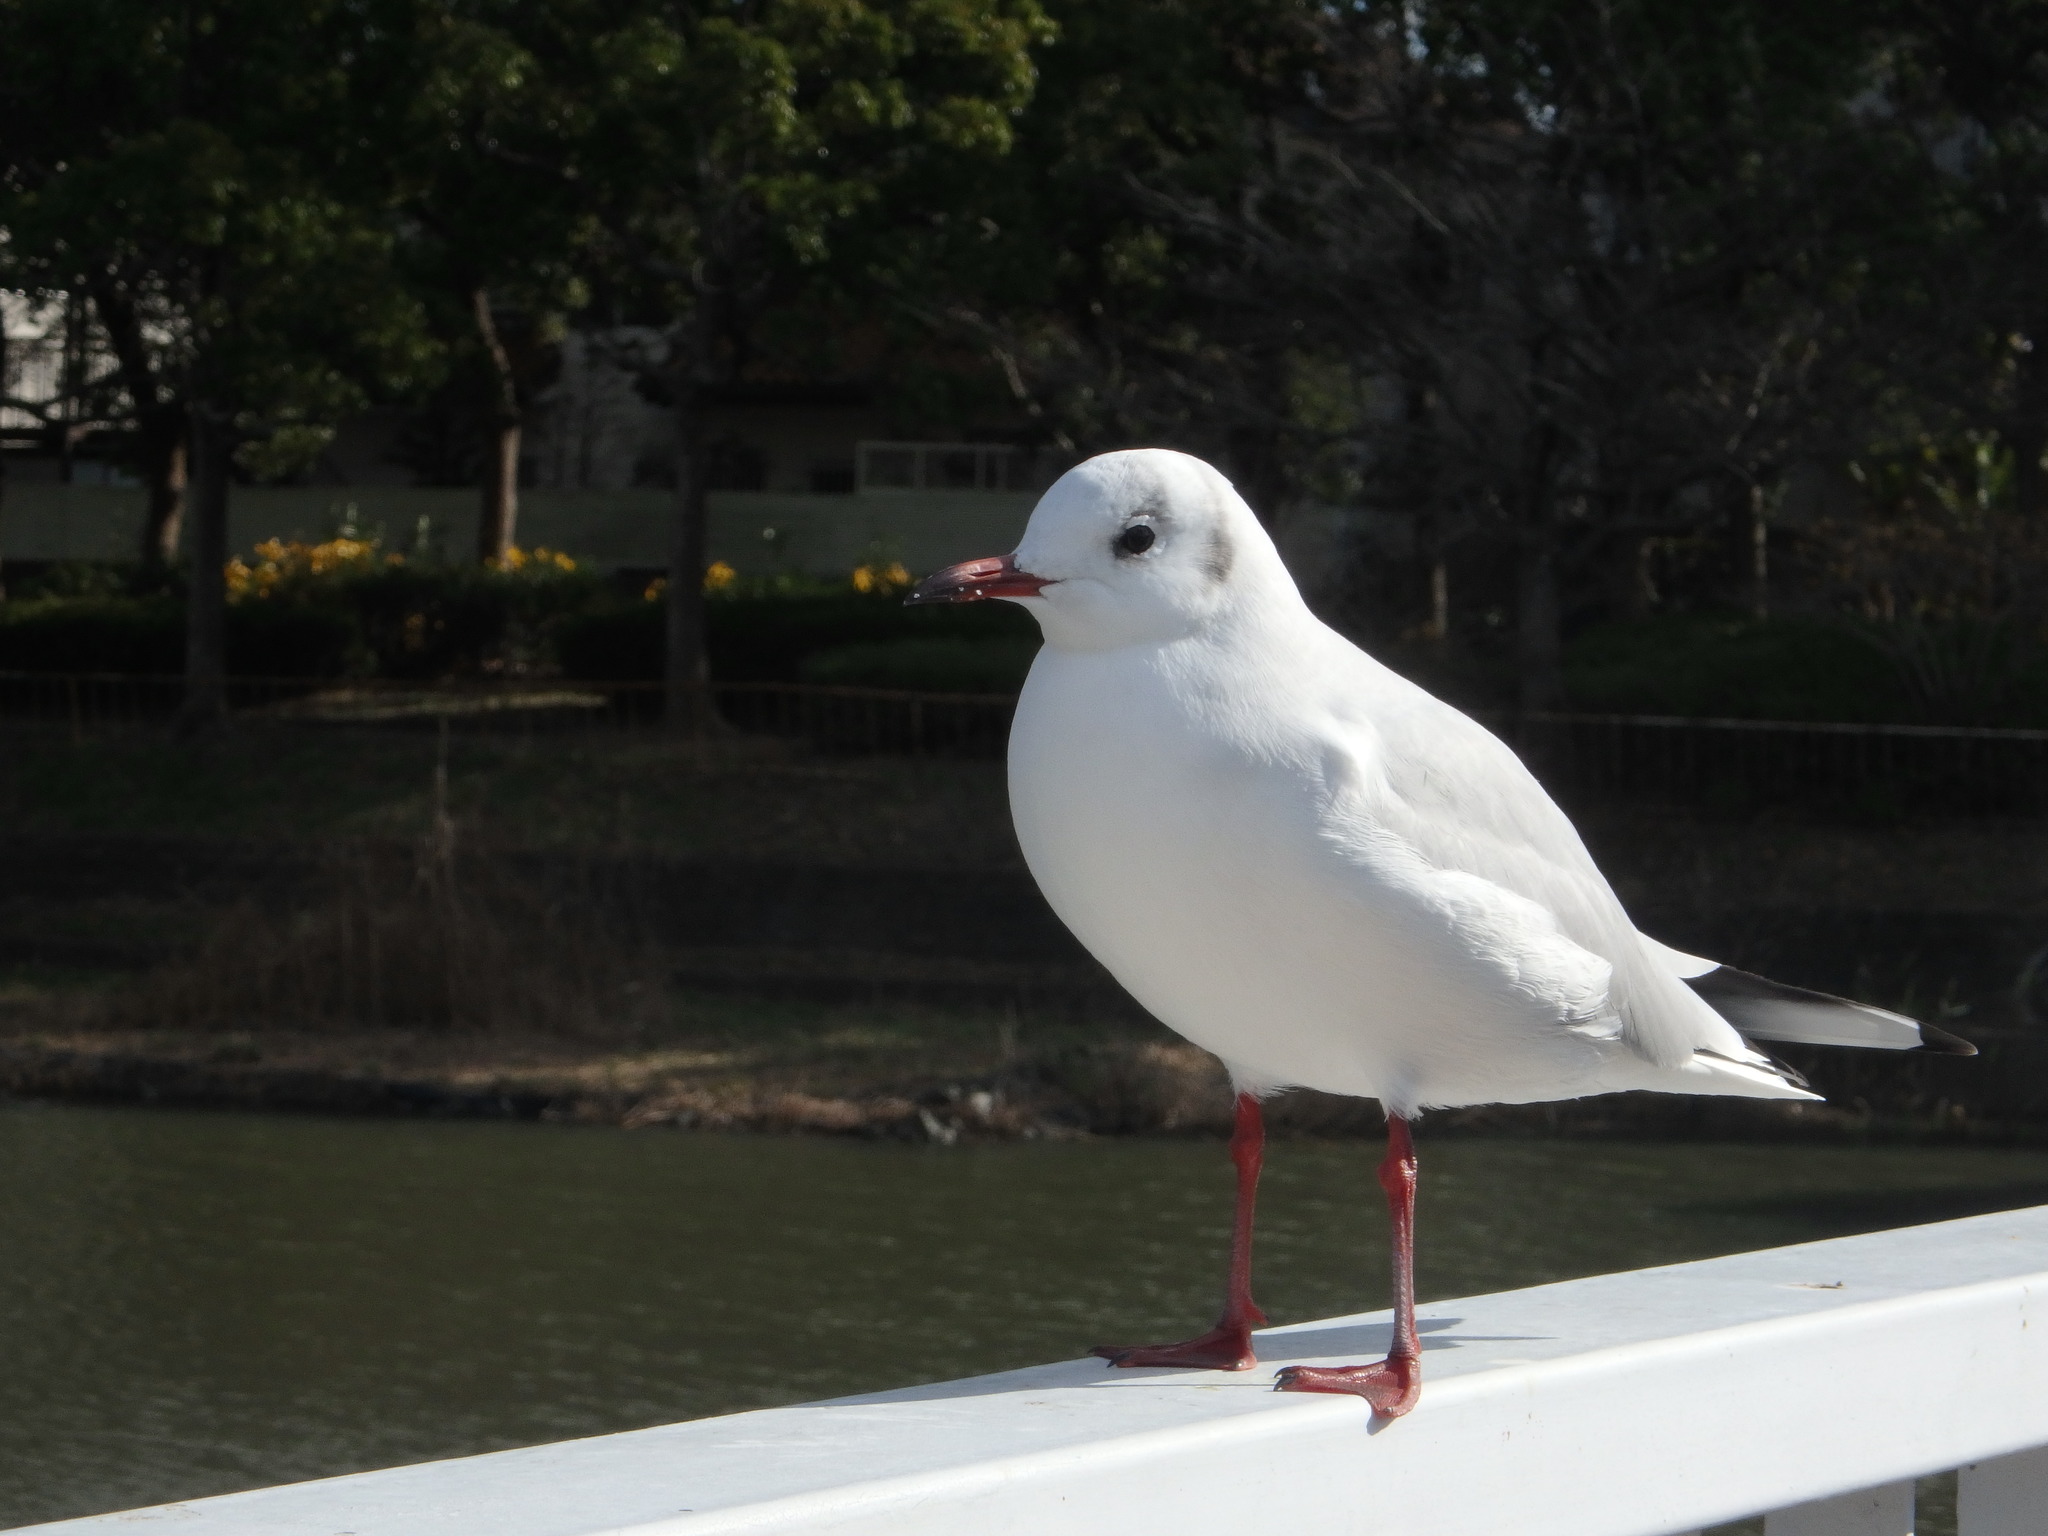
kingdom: Animalia
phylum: Chordata
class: Aves
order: Charadriiformes
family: Laridae
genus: Chroicocephalus
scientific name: Chroicocephalus ridibundus
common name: Black-headed gull
